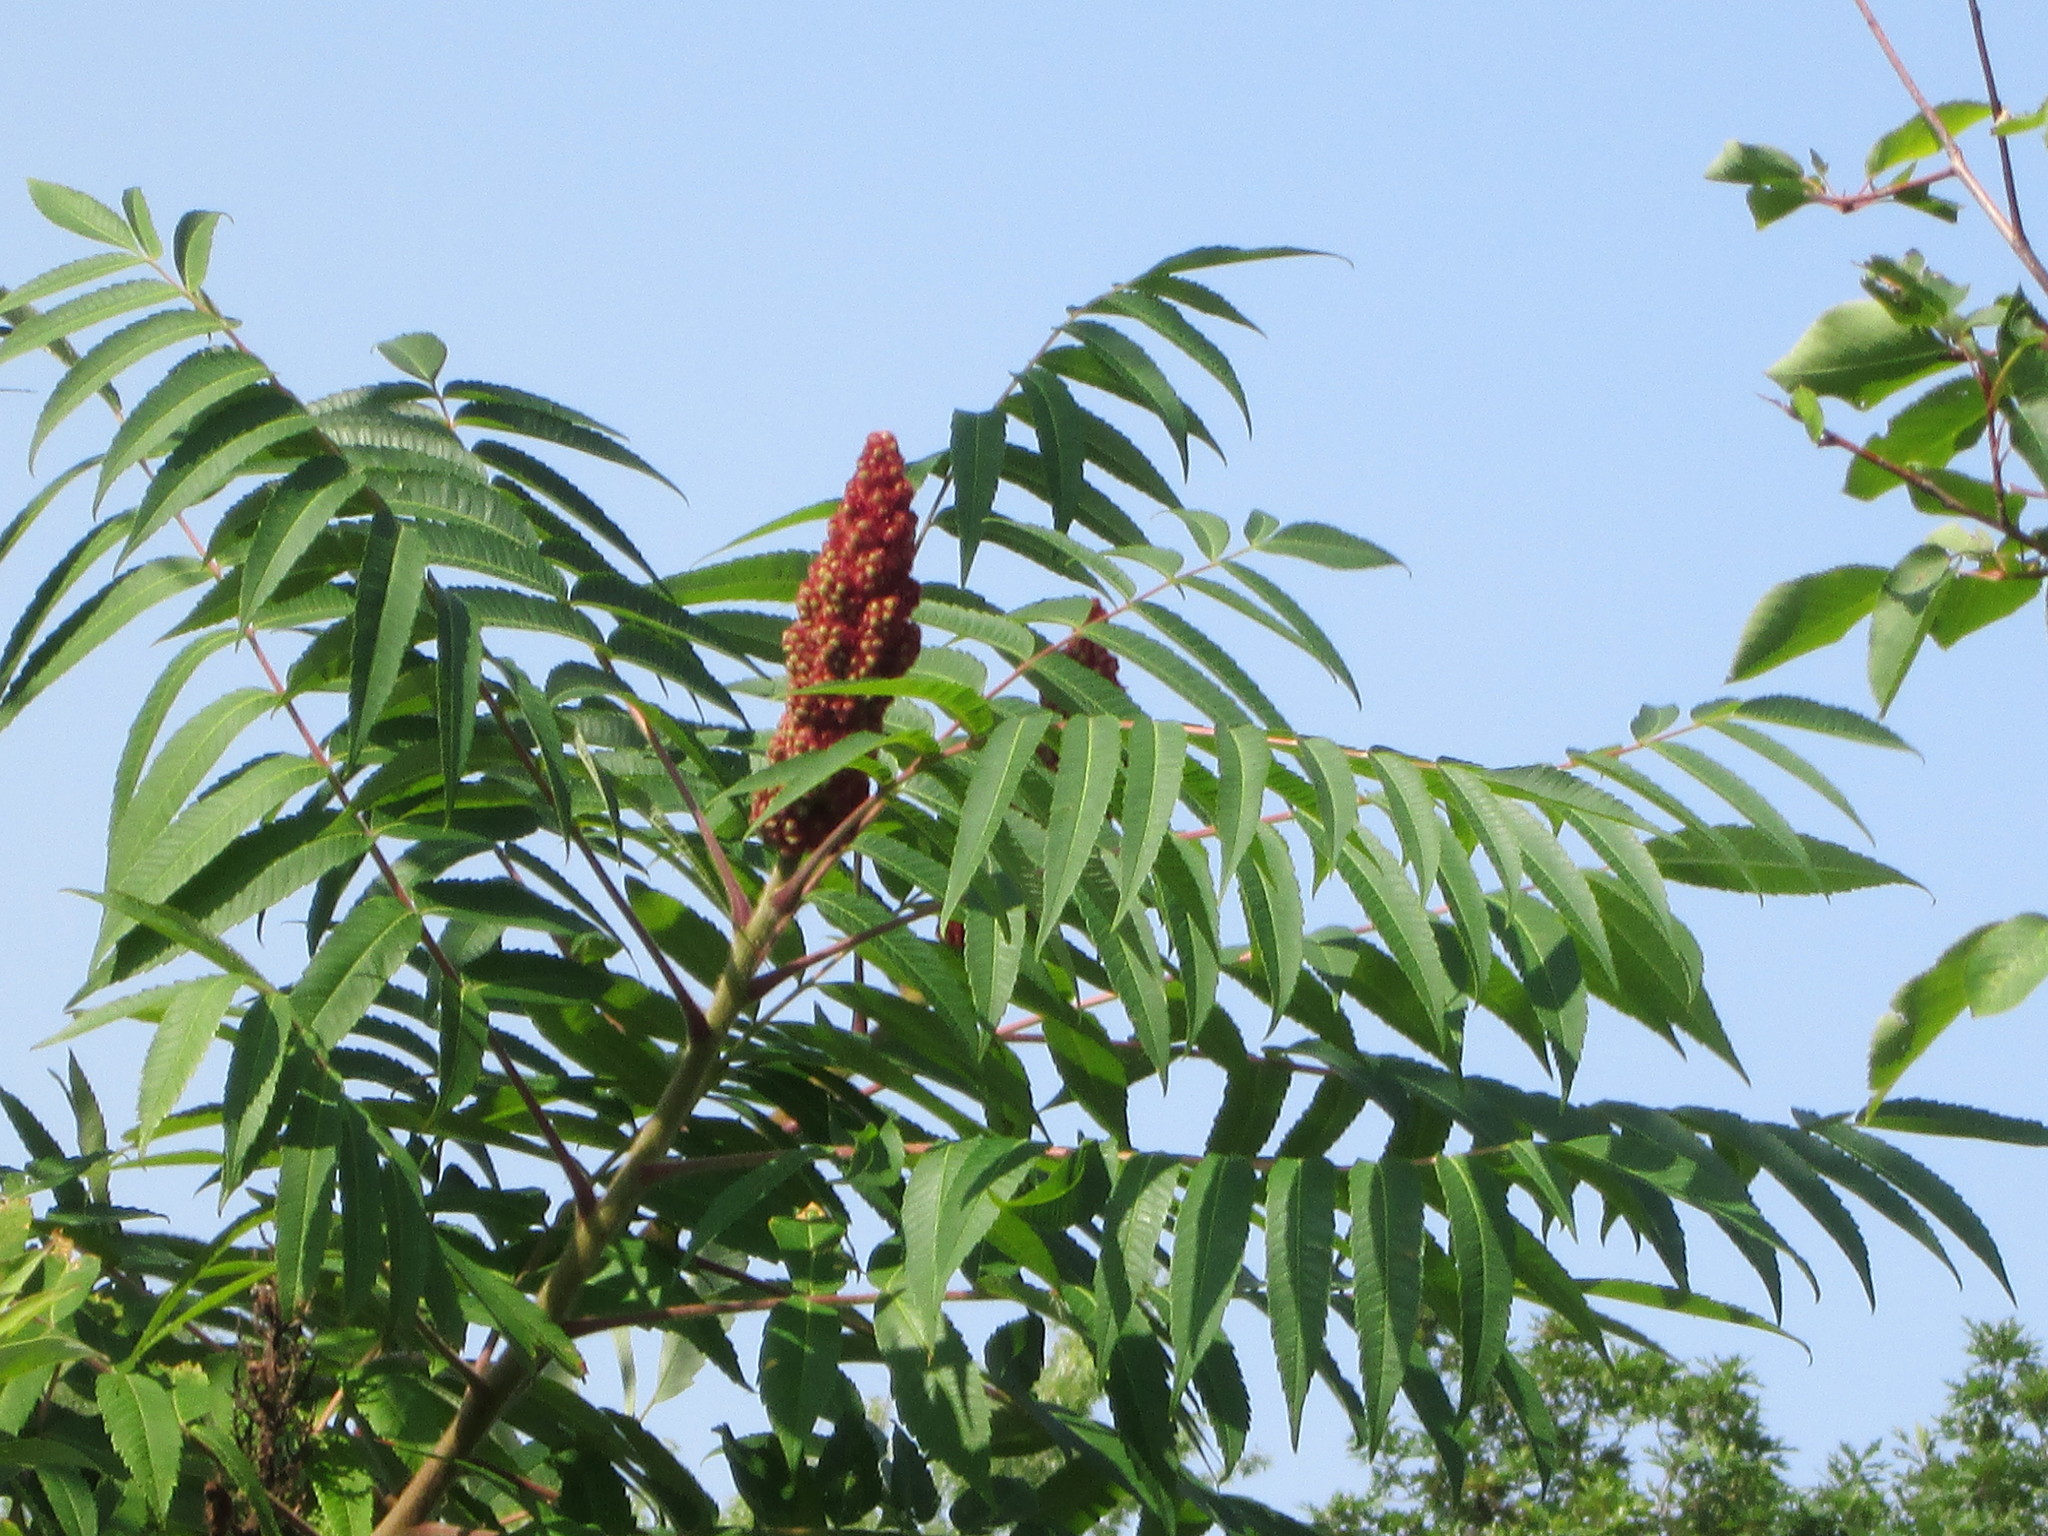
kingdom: Plantae
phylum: Tracheophyta
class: Magnoliopsida
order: Sapindales
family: Anacardiaceae
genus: Rhus
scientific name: Rhus typhina
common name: Staghorn sumac
